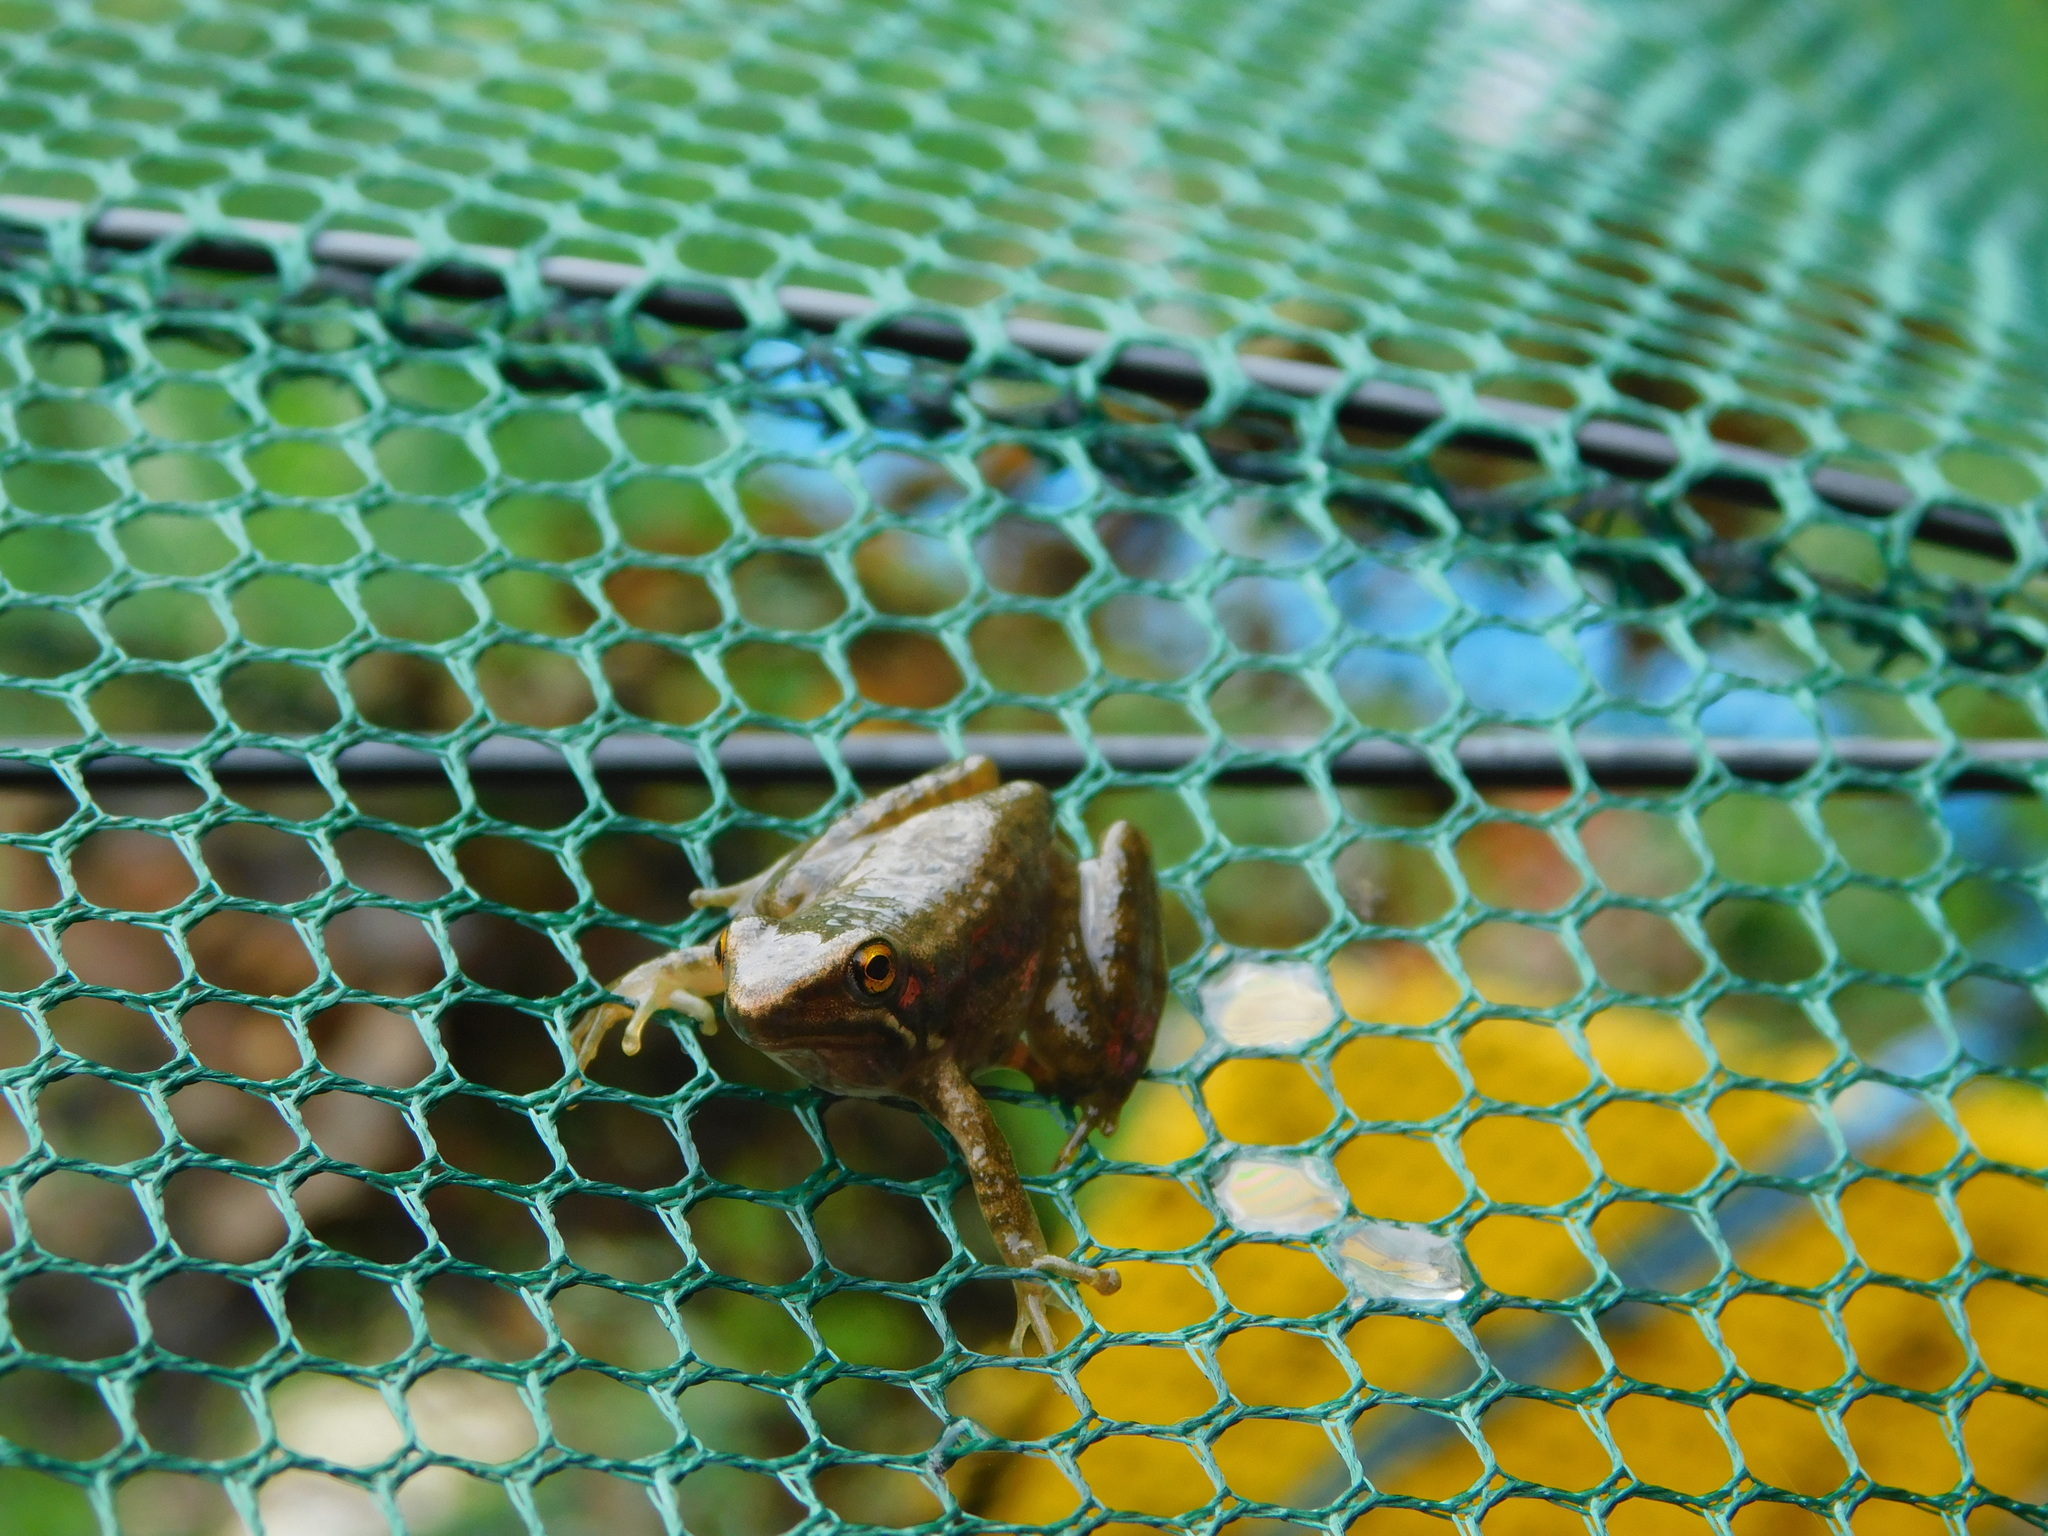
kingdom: Animalia
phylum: Chordata
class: Amphibia
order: Anura
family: Ranidae
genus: Chalcorana
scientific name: Chalcorana chalconota
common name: Schlegel's frog
